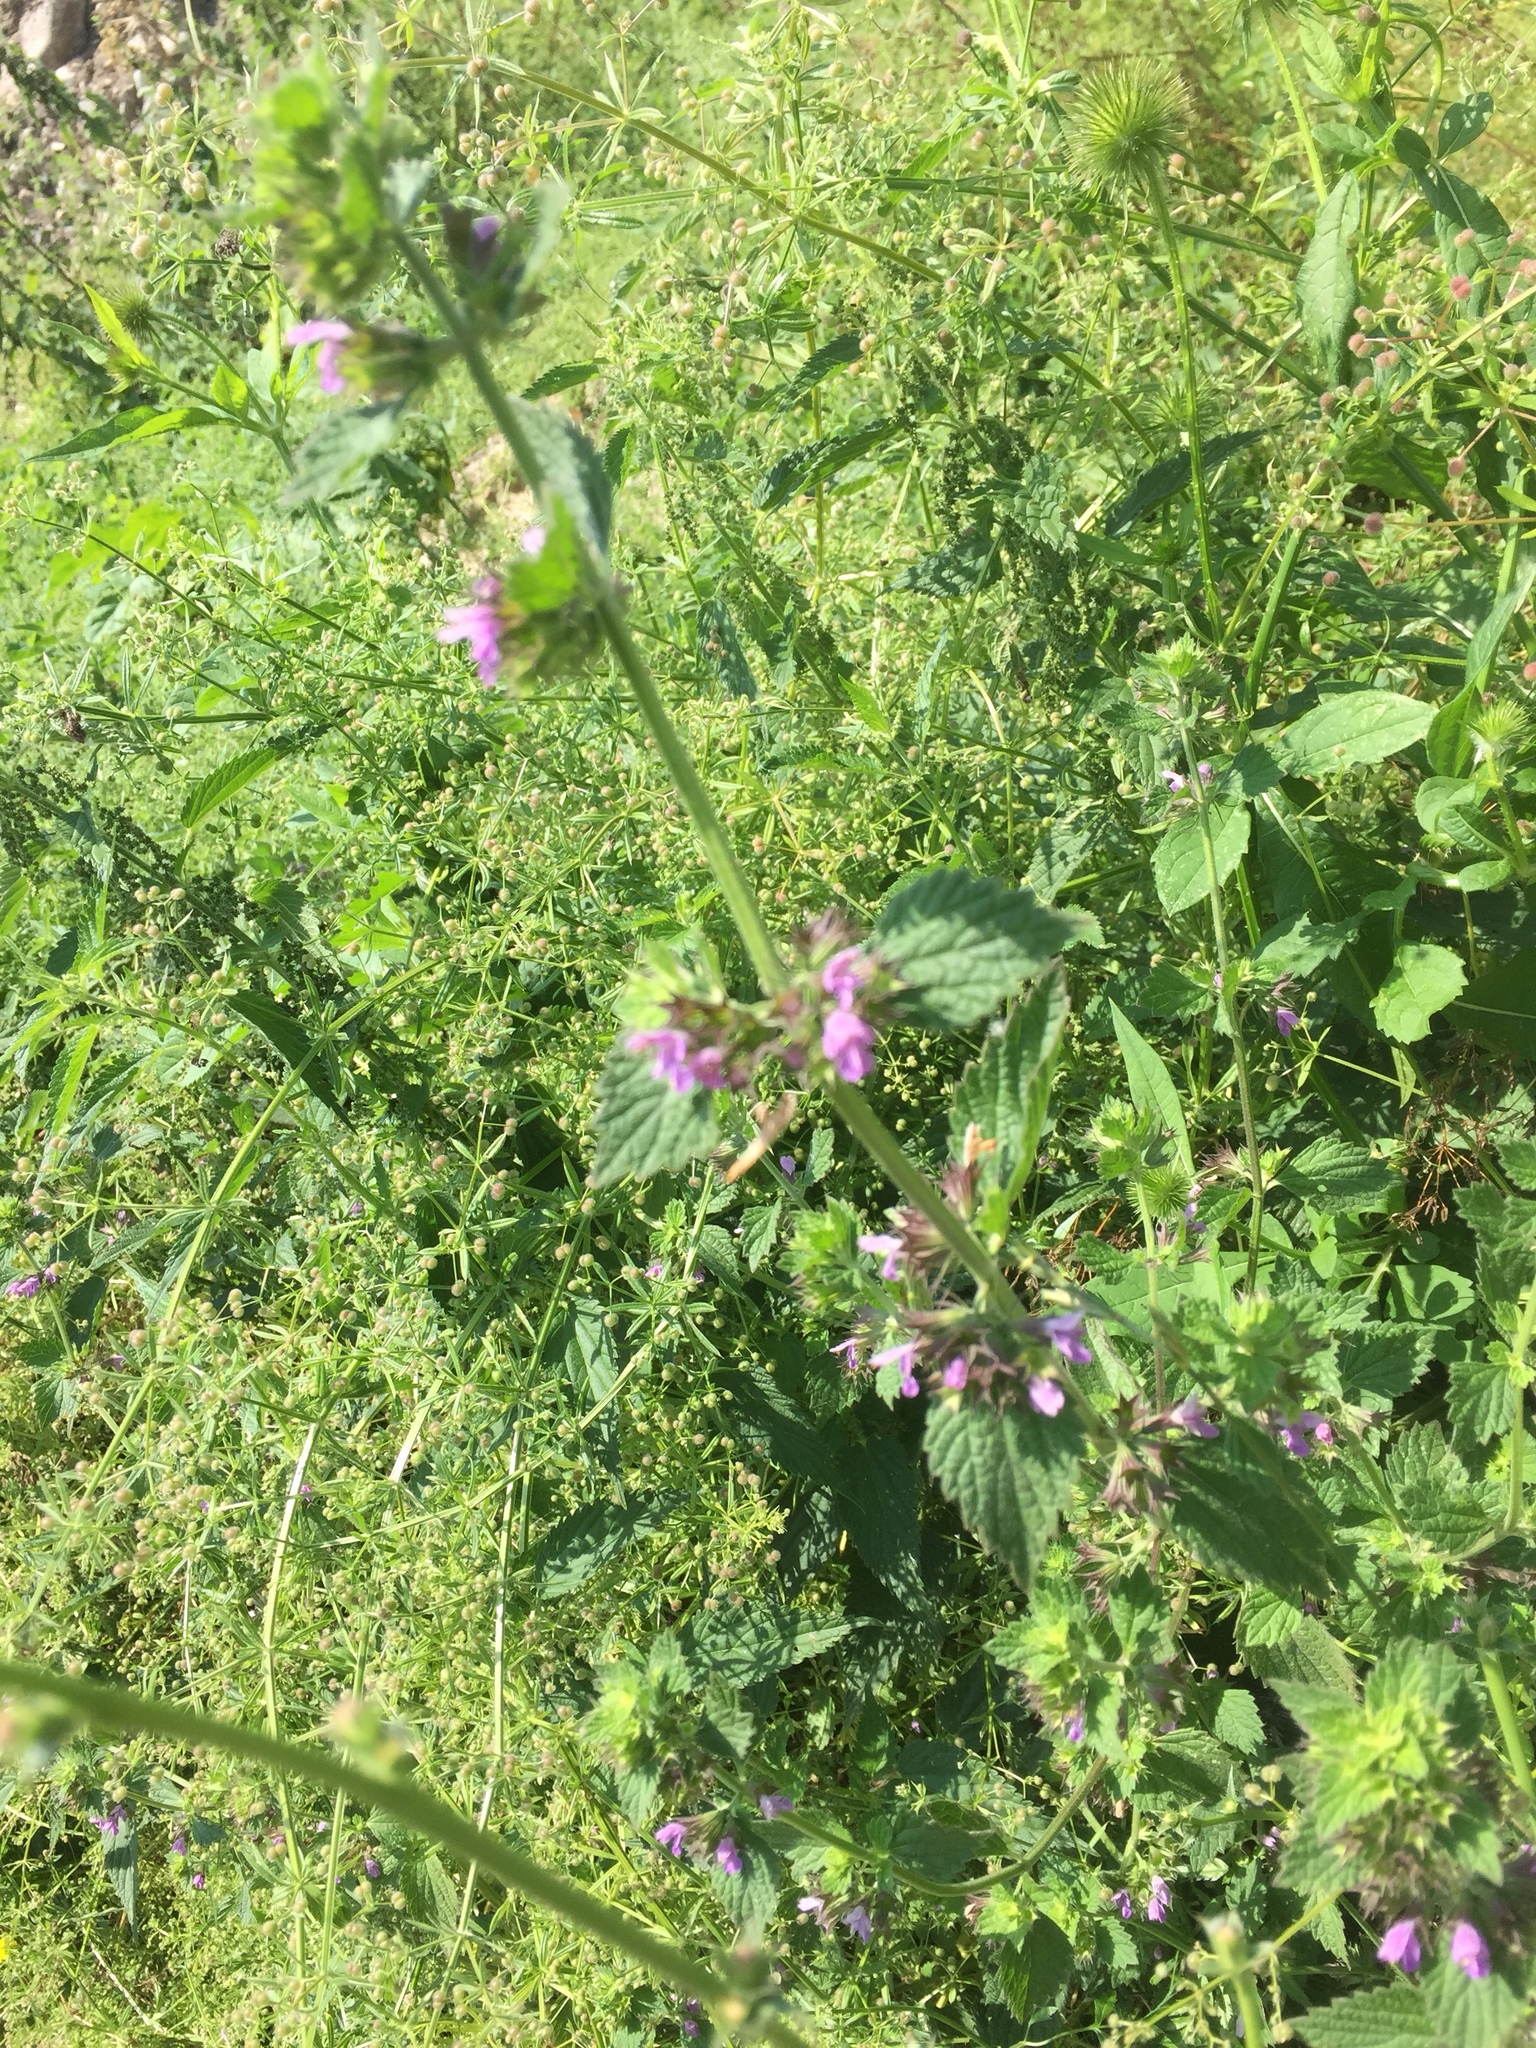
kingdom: Plantae
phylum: Tracheophyta
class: Magnoliopsida
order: Lamiales
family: Lamiaceae
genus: Ballota
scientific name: Ballota nigra
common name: Black horehound
